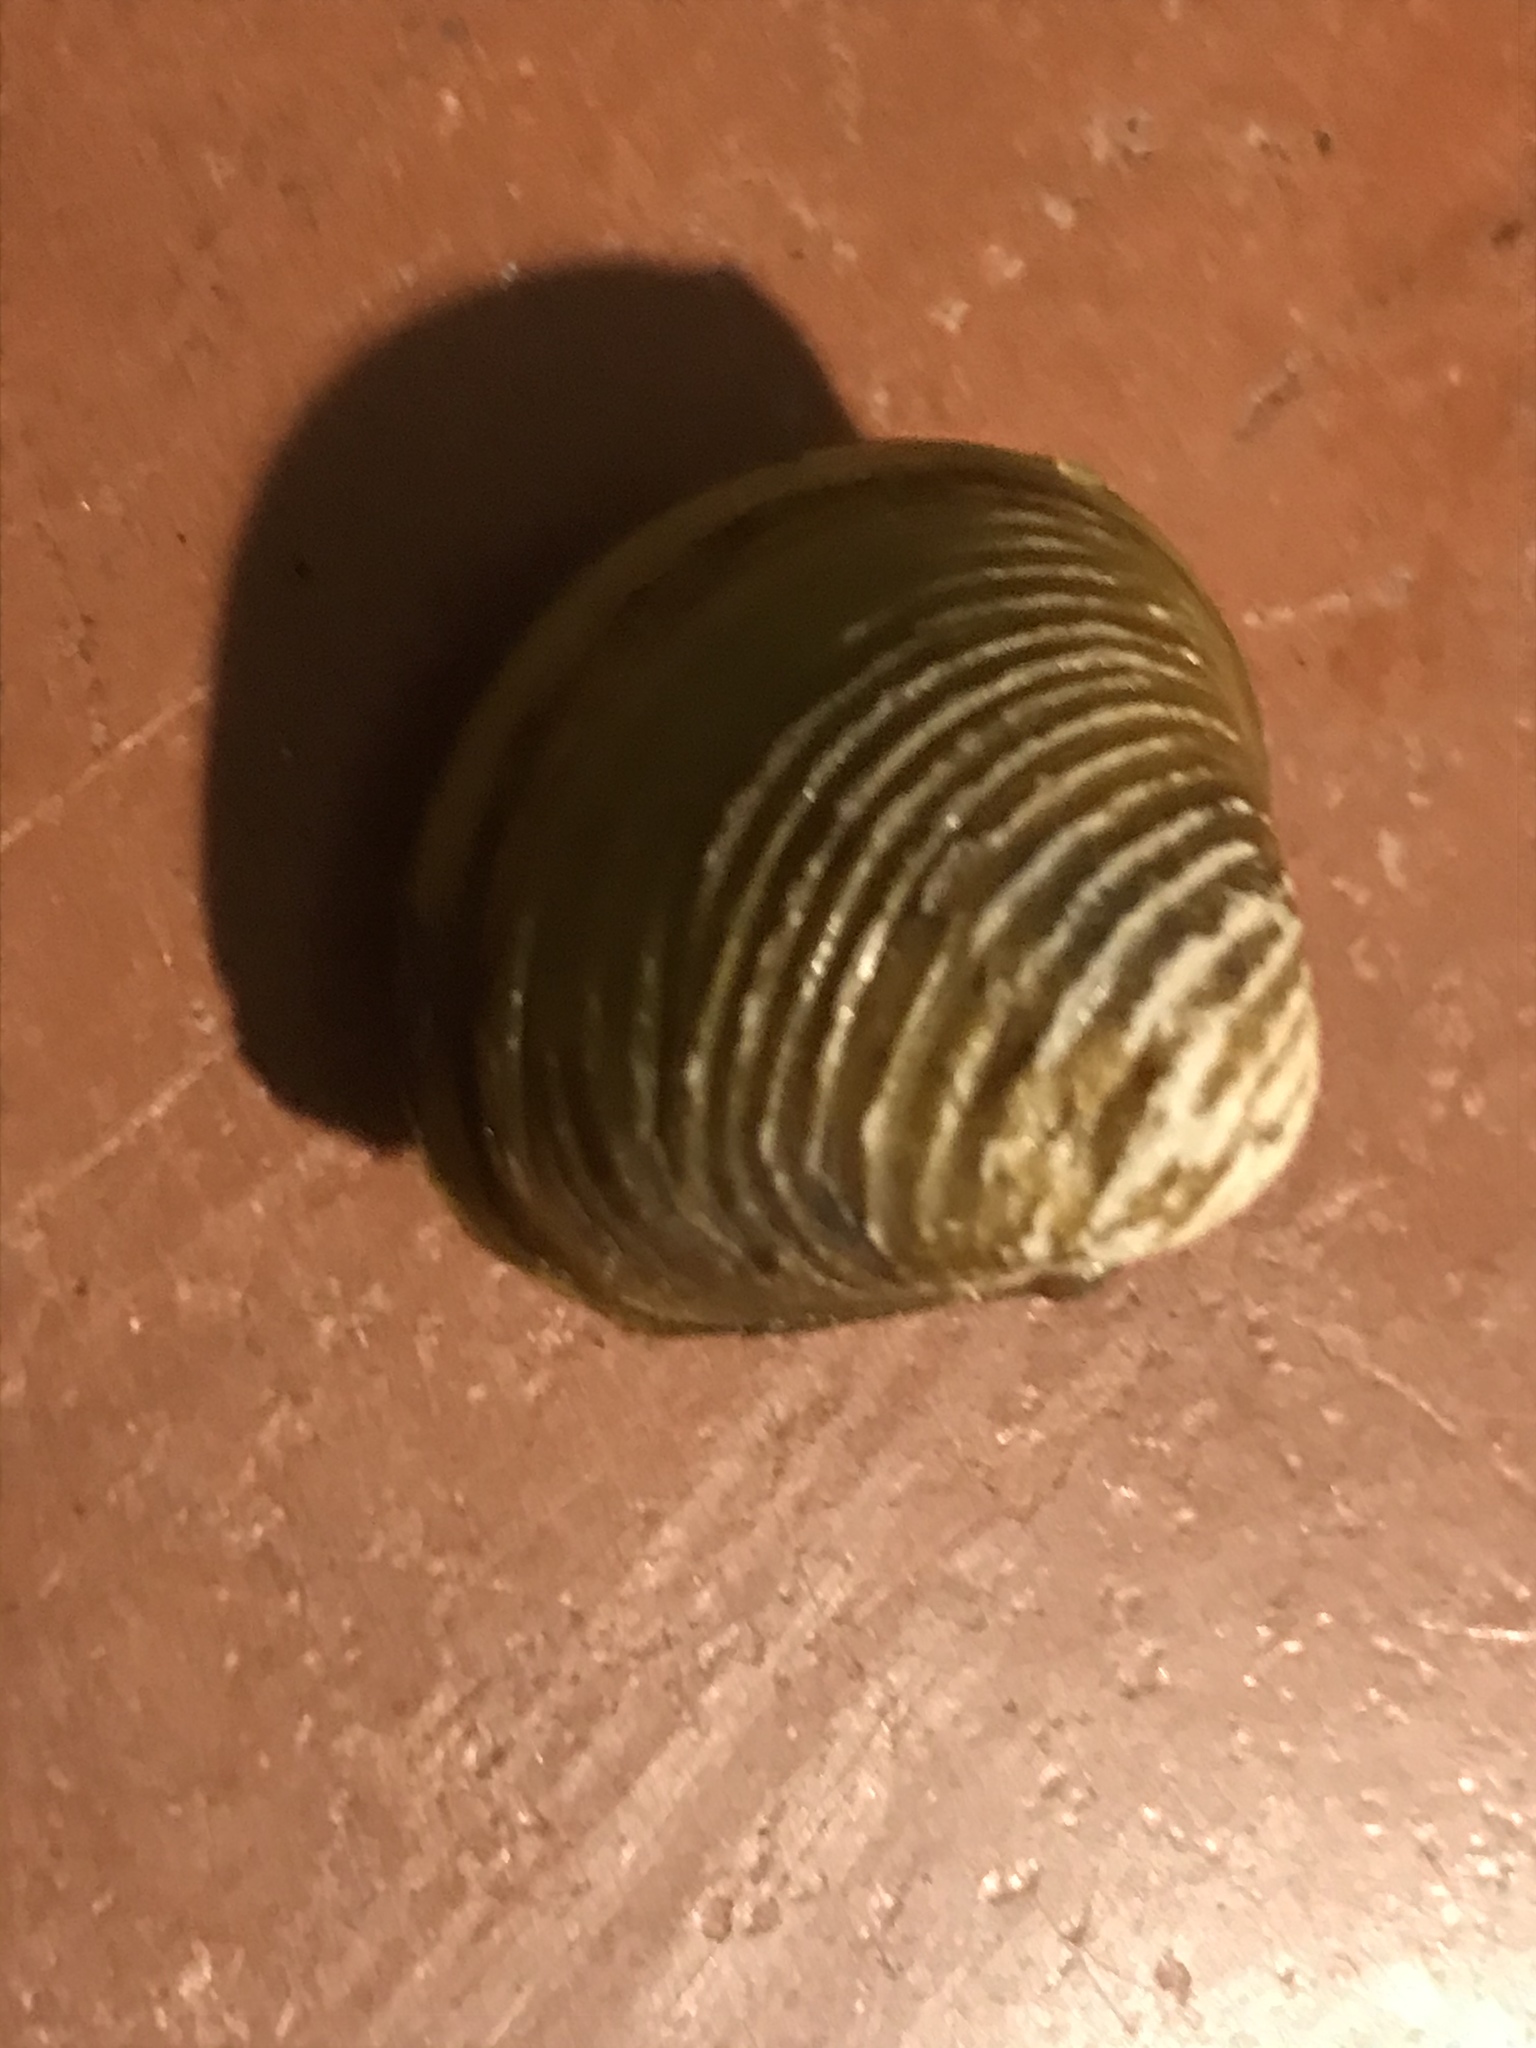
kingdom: Animalia
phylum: Mollusca
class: Bivalvia
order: Venerida
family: Cyrenidae
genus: Corbicula
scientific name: Corbicula fluminea
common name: Asian clam
